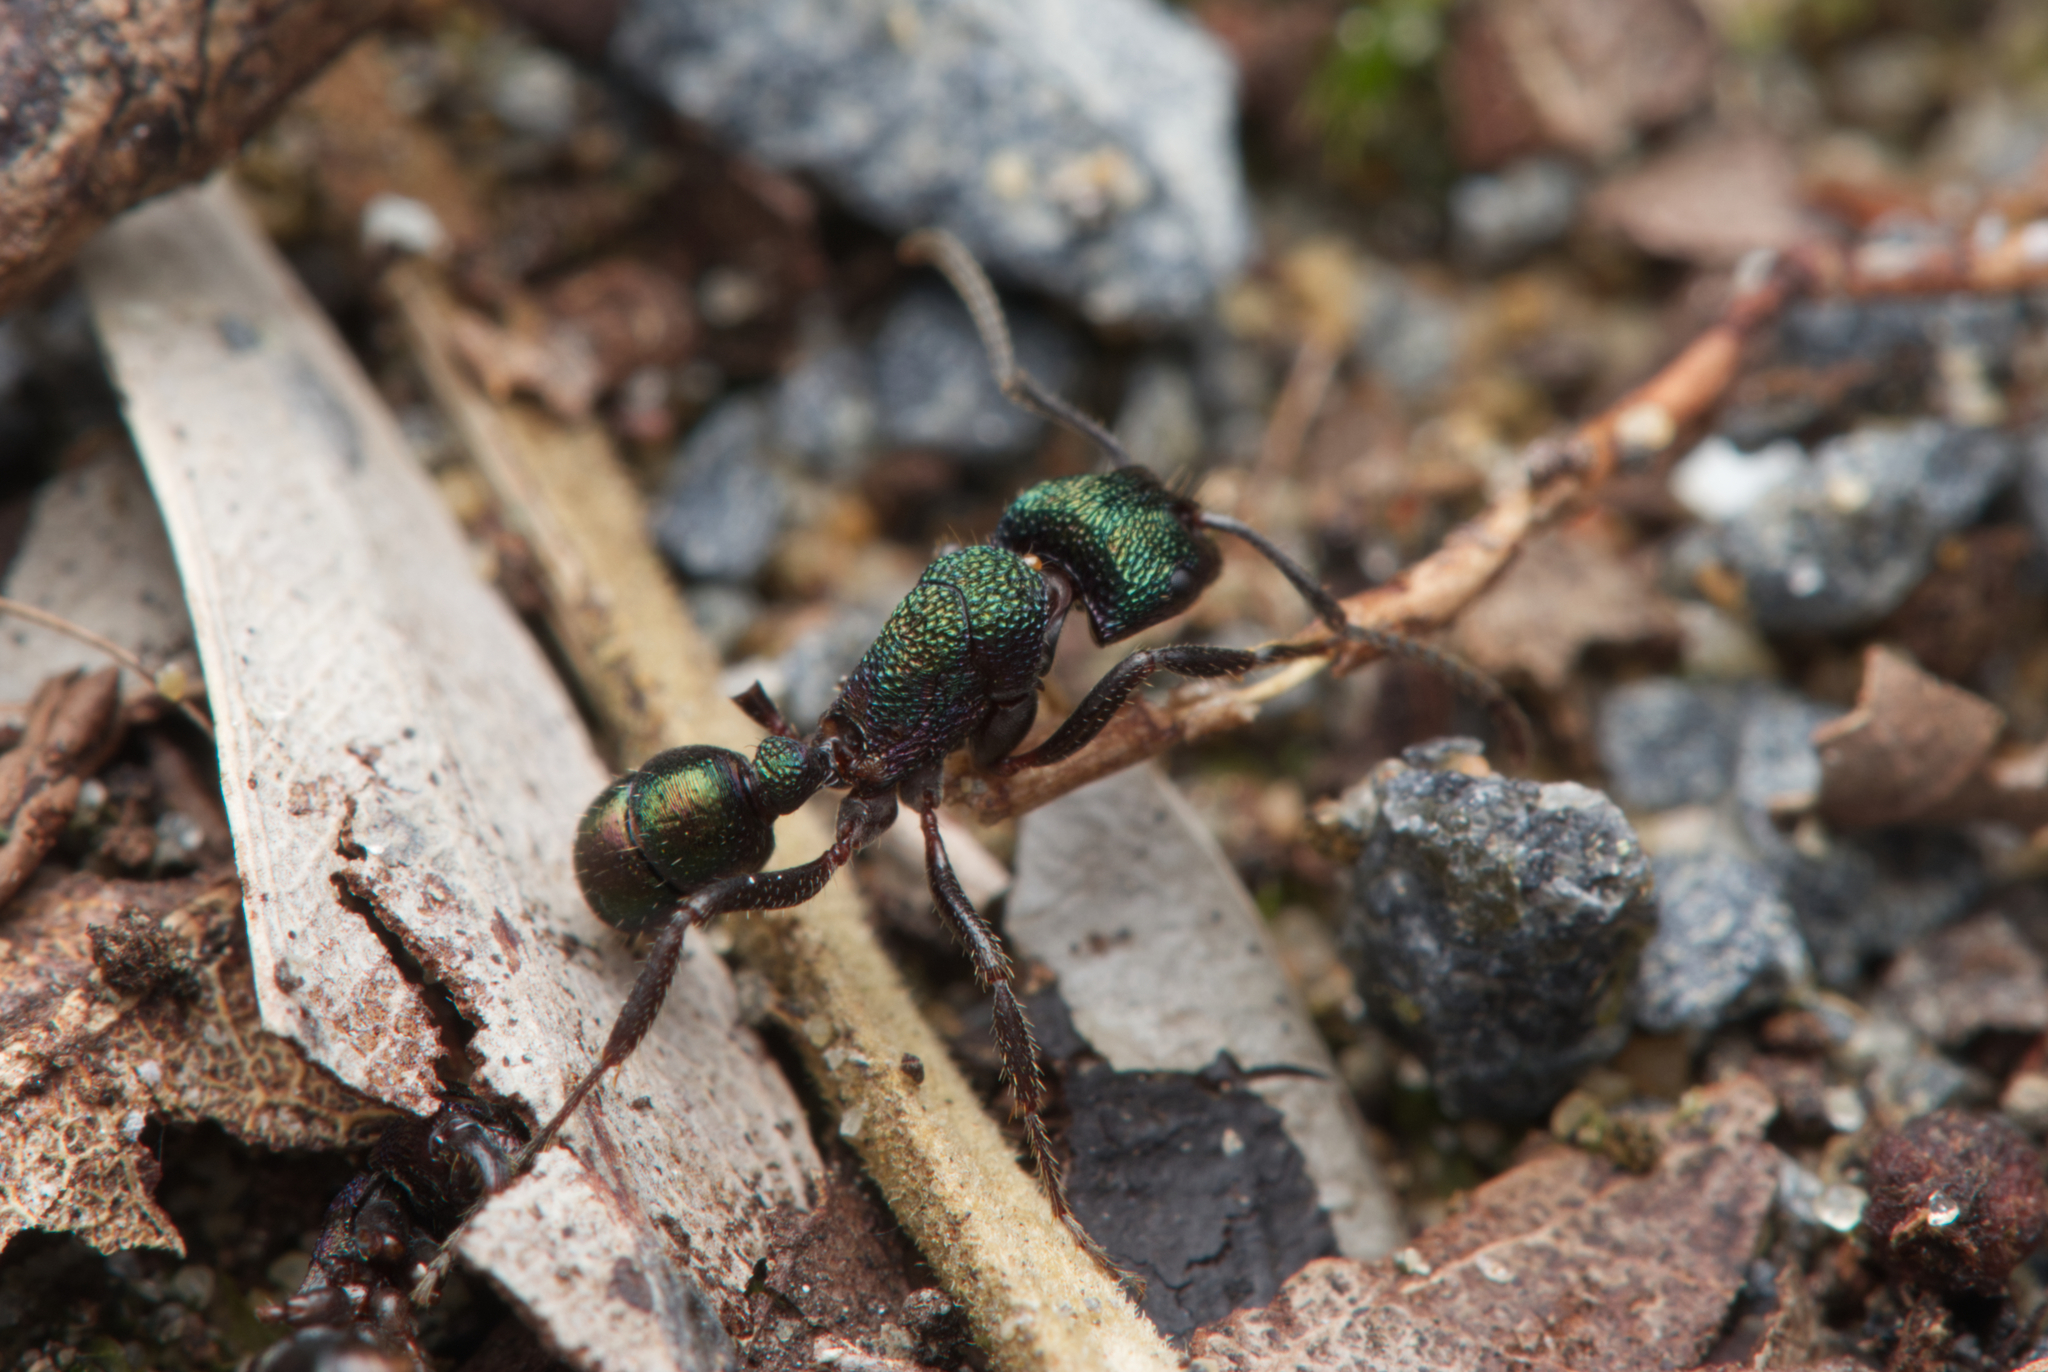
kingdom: Animalia
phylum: Arthropoda
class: Insecta
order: Hymenoptera
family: Formicidae
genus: Rhytidoponera
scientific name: Rhytidoponera metallica
